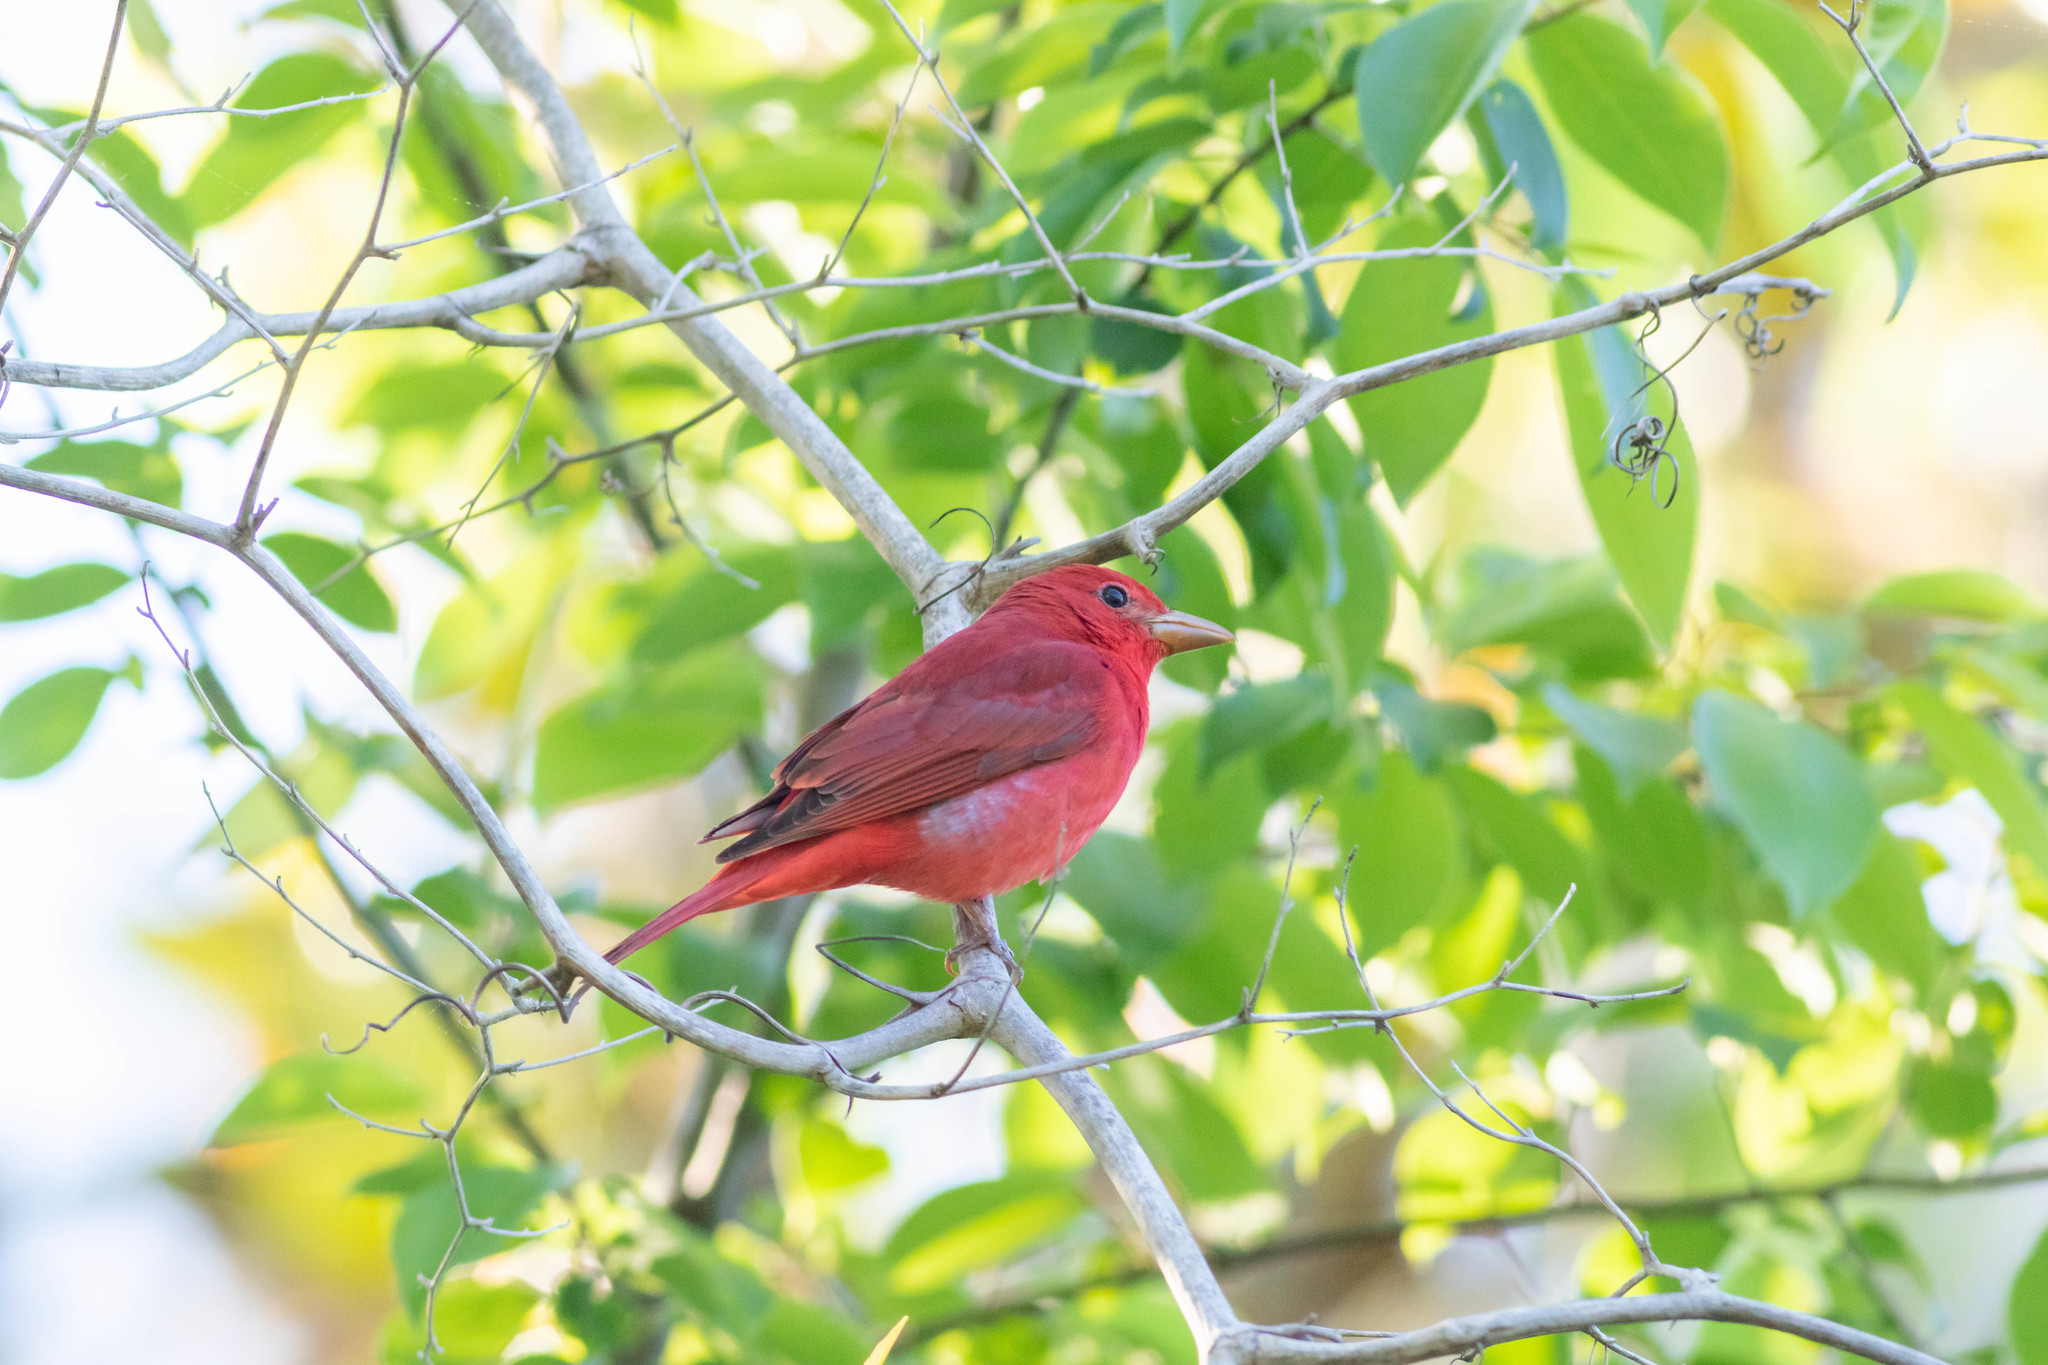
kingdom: Animalia
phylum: Chordata
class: Aves
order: Passeriformes
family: Cardinalidae
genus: Piranga
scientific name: Piranga rubra
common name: Summer tanager
